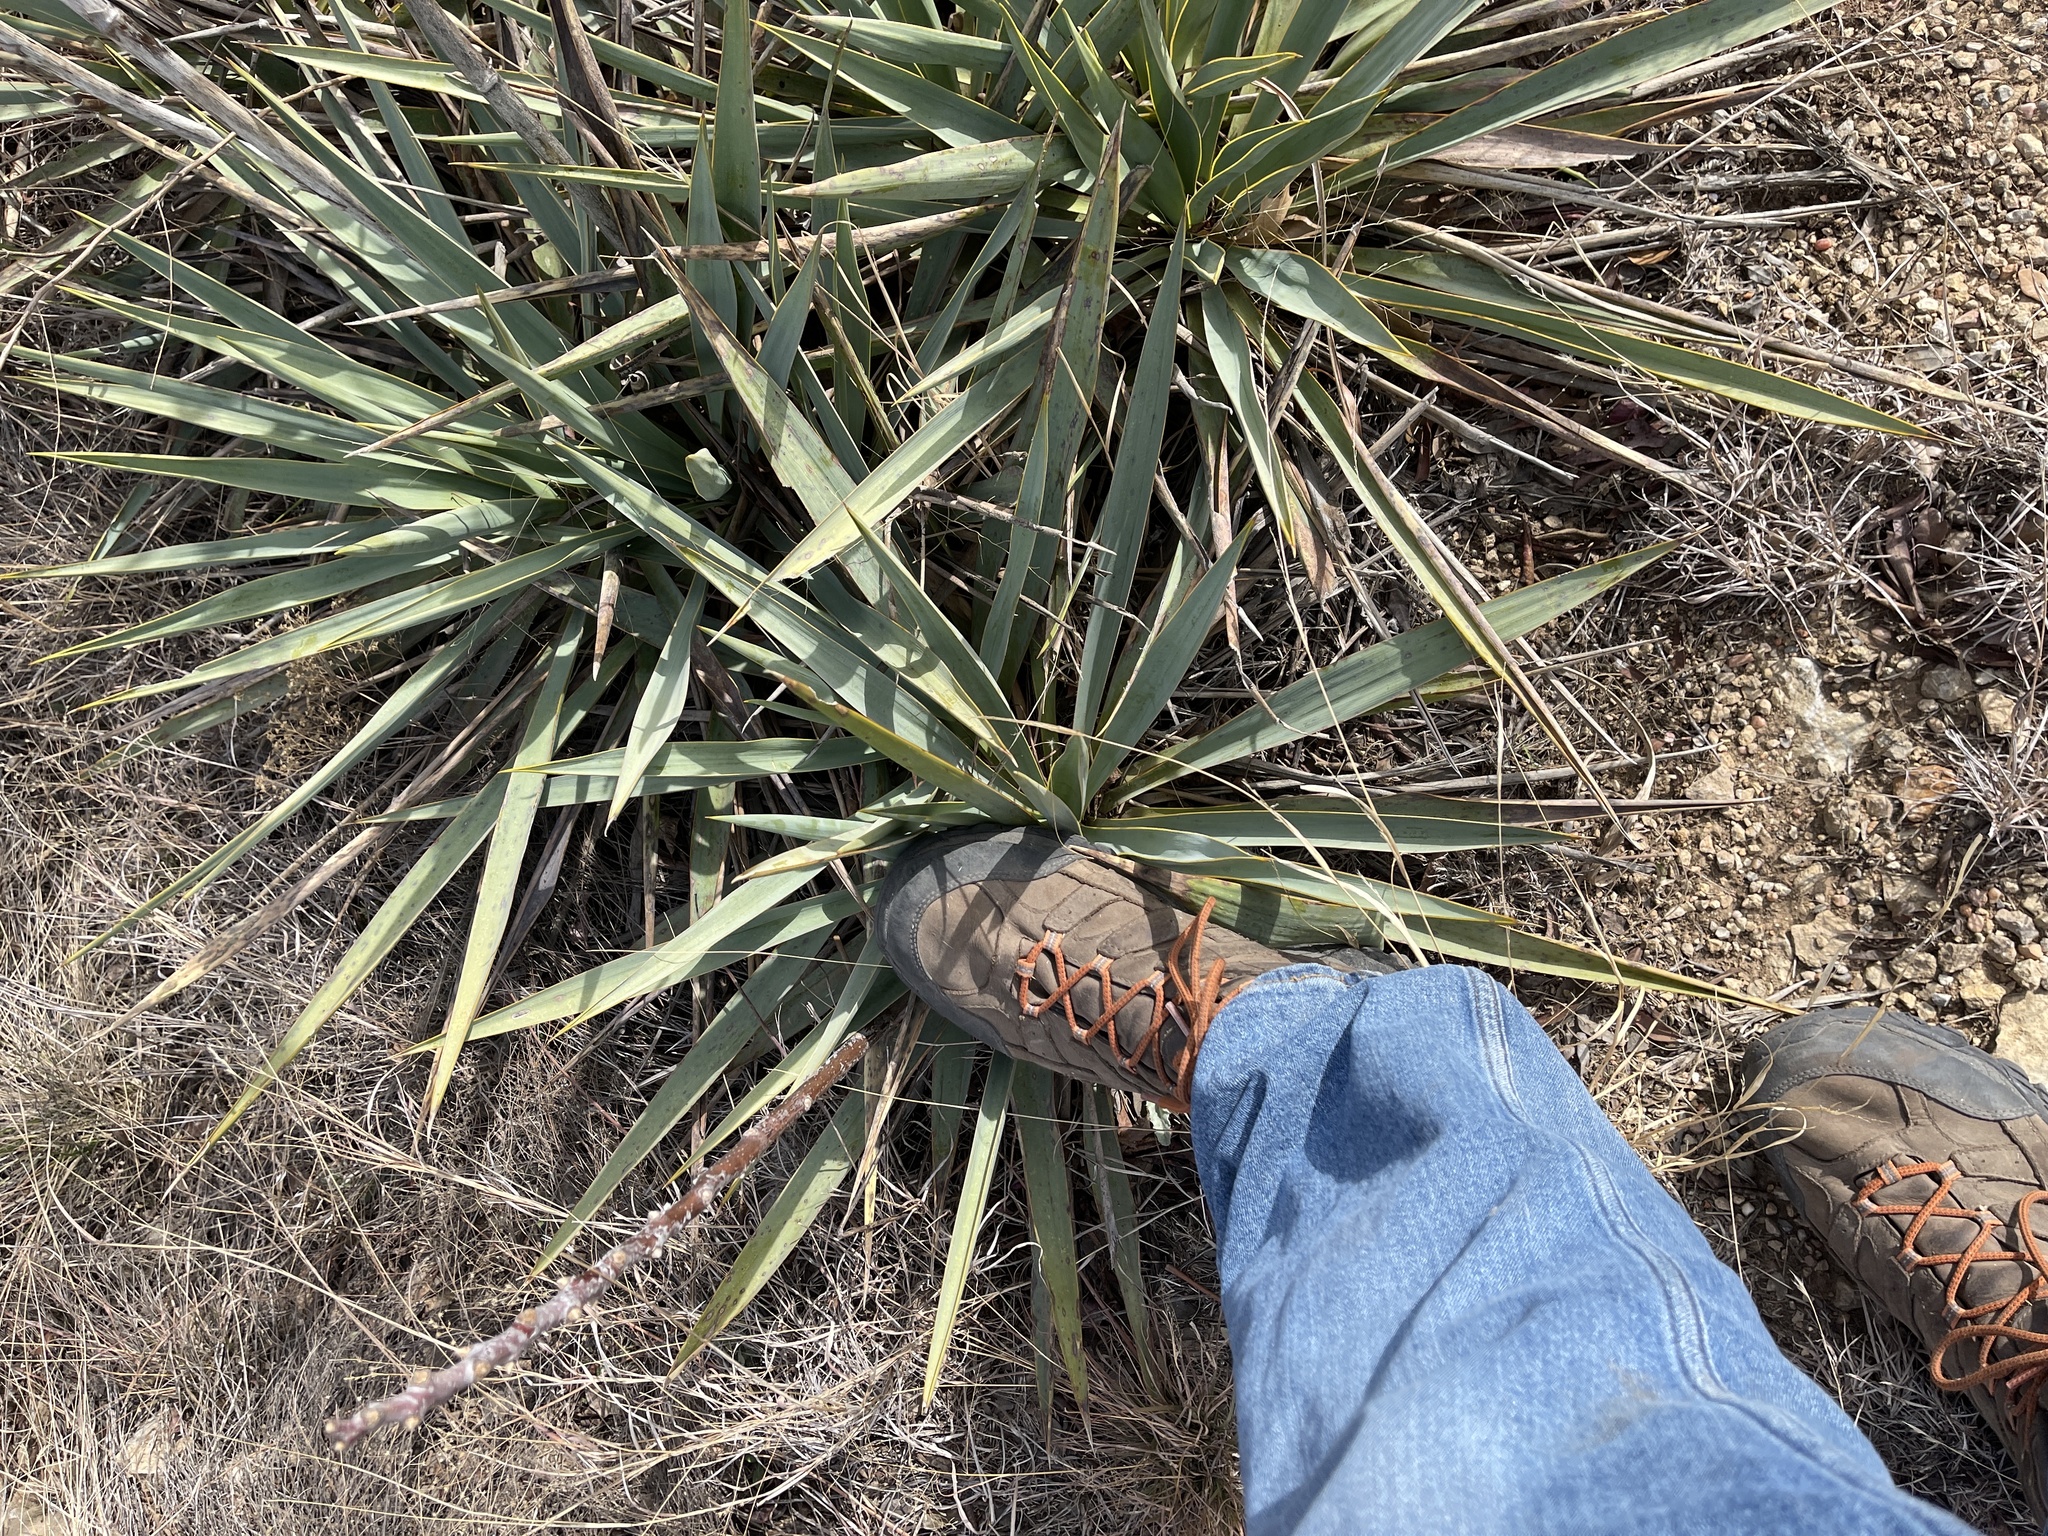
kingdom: Plantae
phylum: Tracheophyta
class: Liliopsida
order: Asparagales
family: Asparagaceae
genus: Yucca
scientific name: Yucca pallida
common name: Pale leaf yucca
